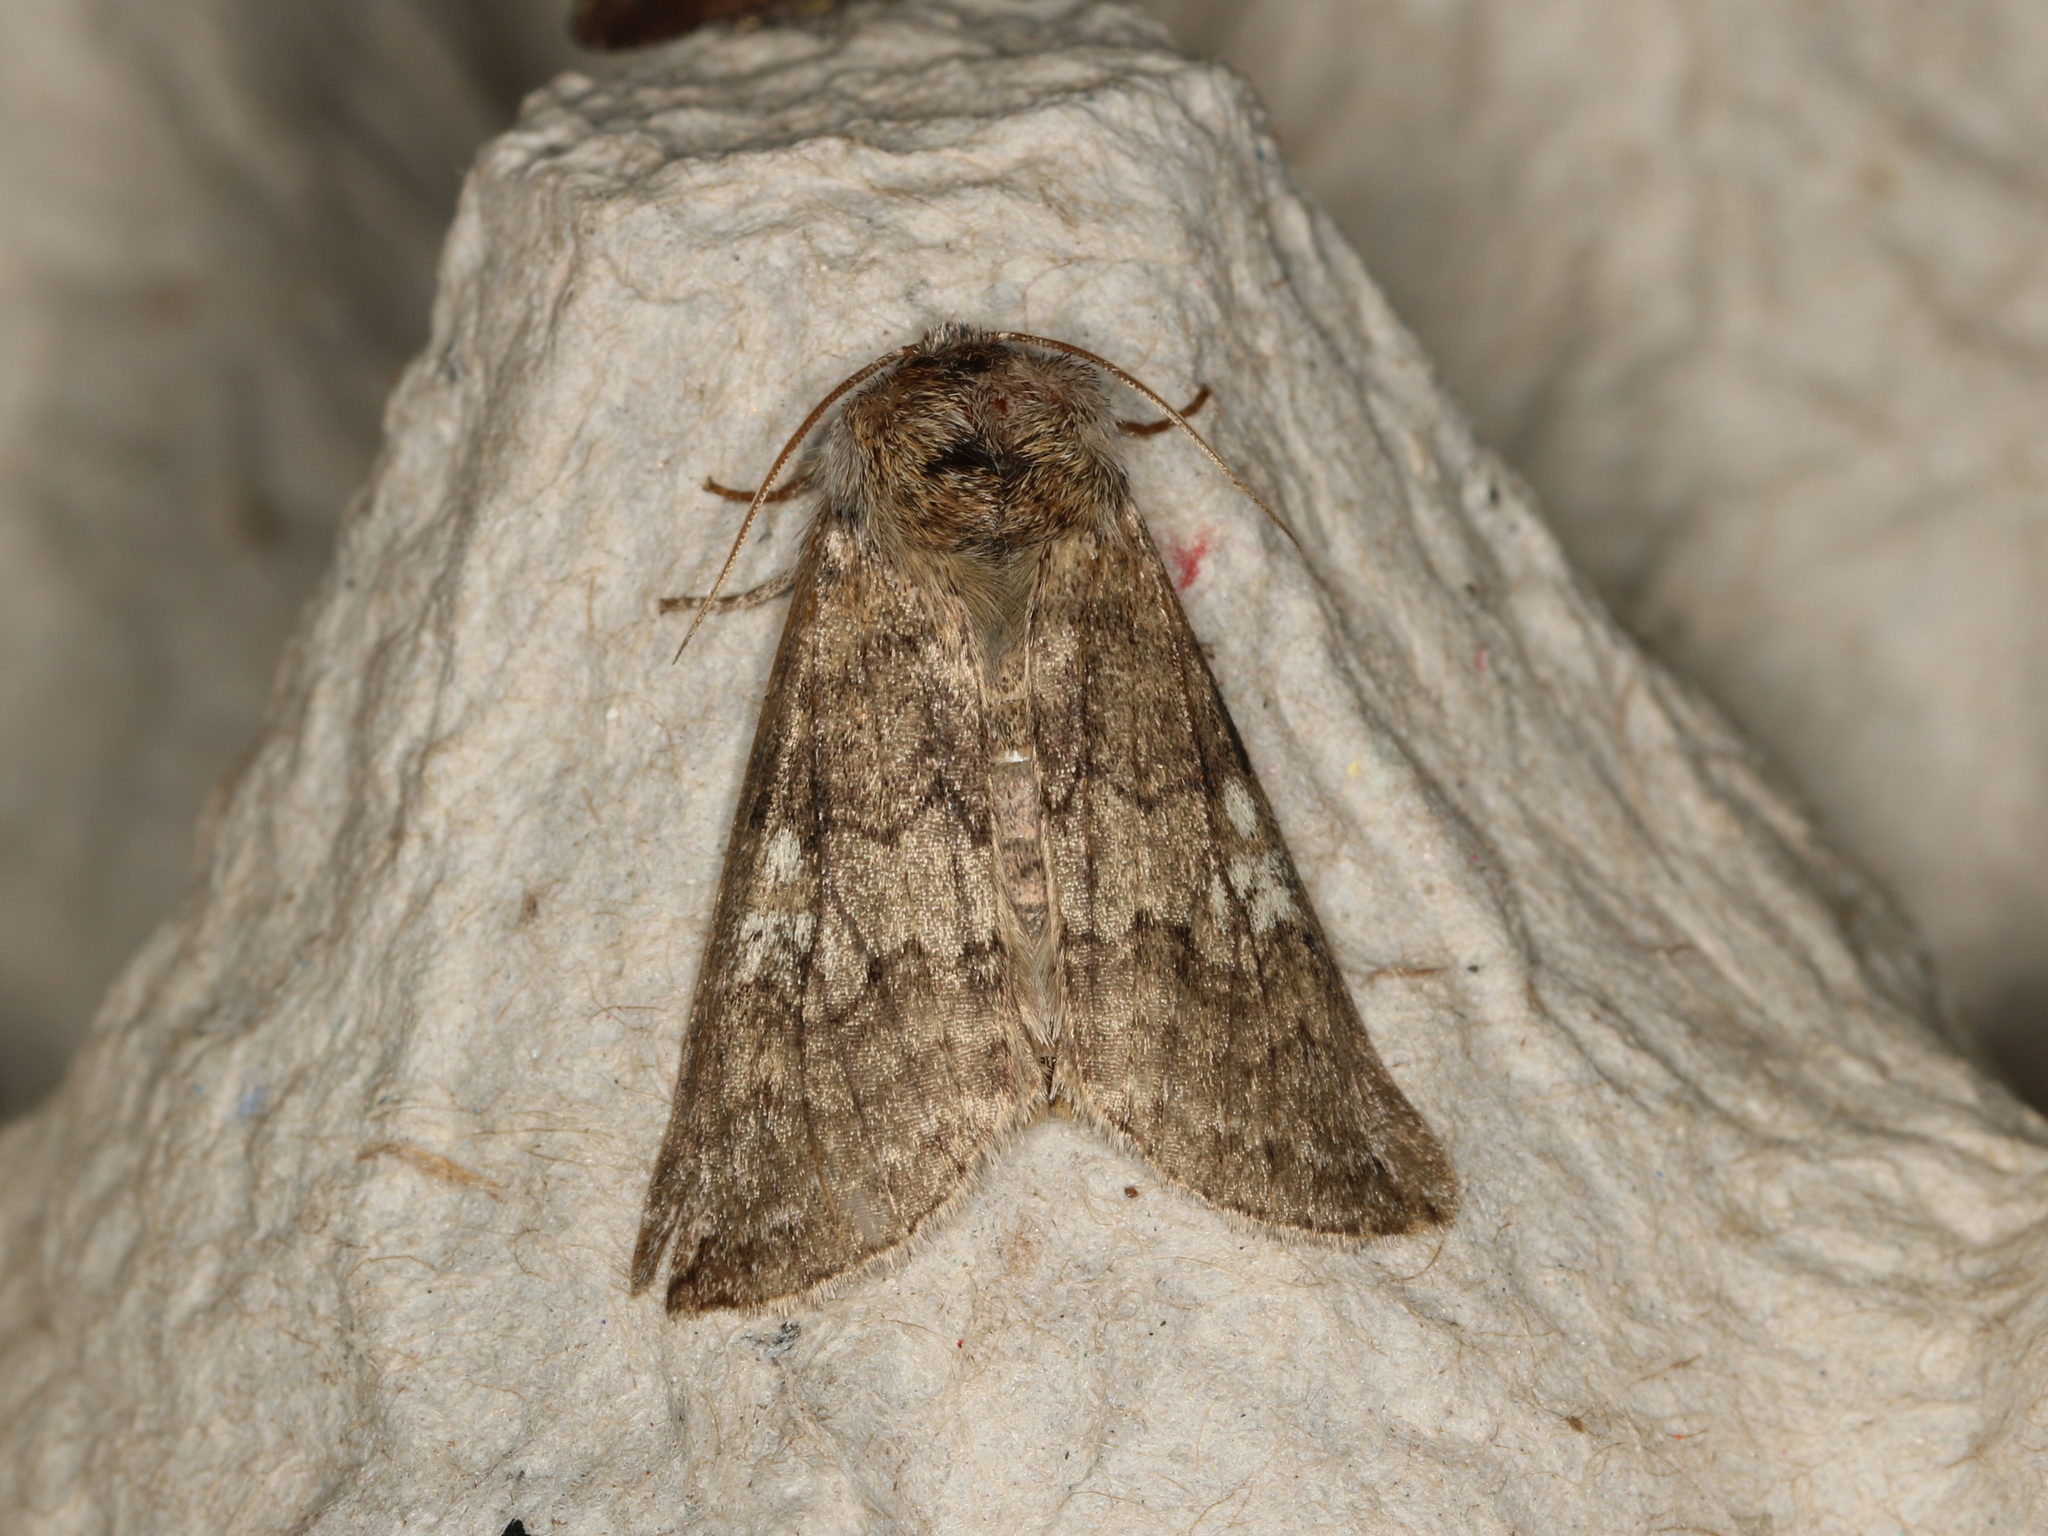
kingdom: Animalia
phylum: Arthropoda
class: Insecta
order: Lepidoptera
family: Drepanidae
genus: Tethea
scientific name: Tethea or
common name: Poplar lutestring
